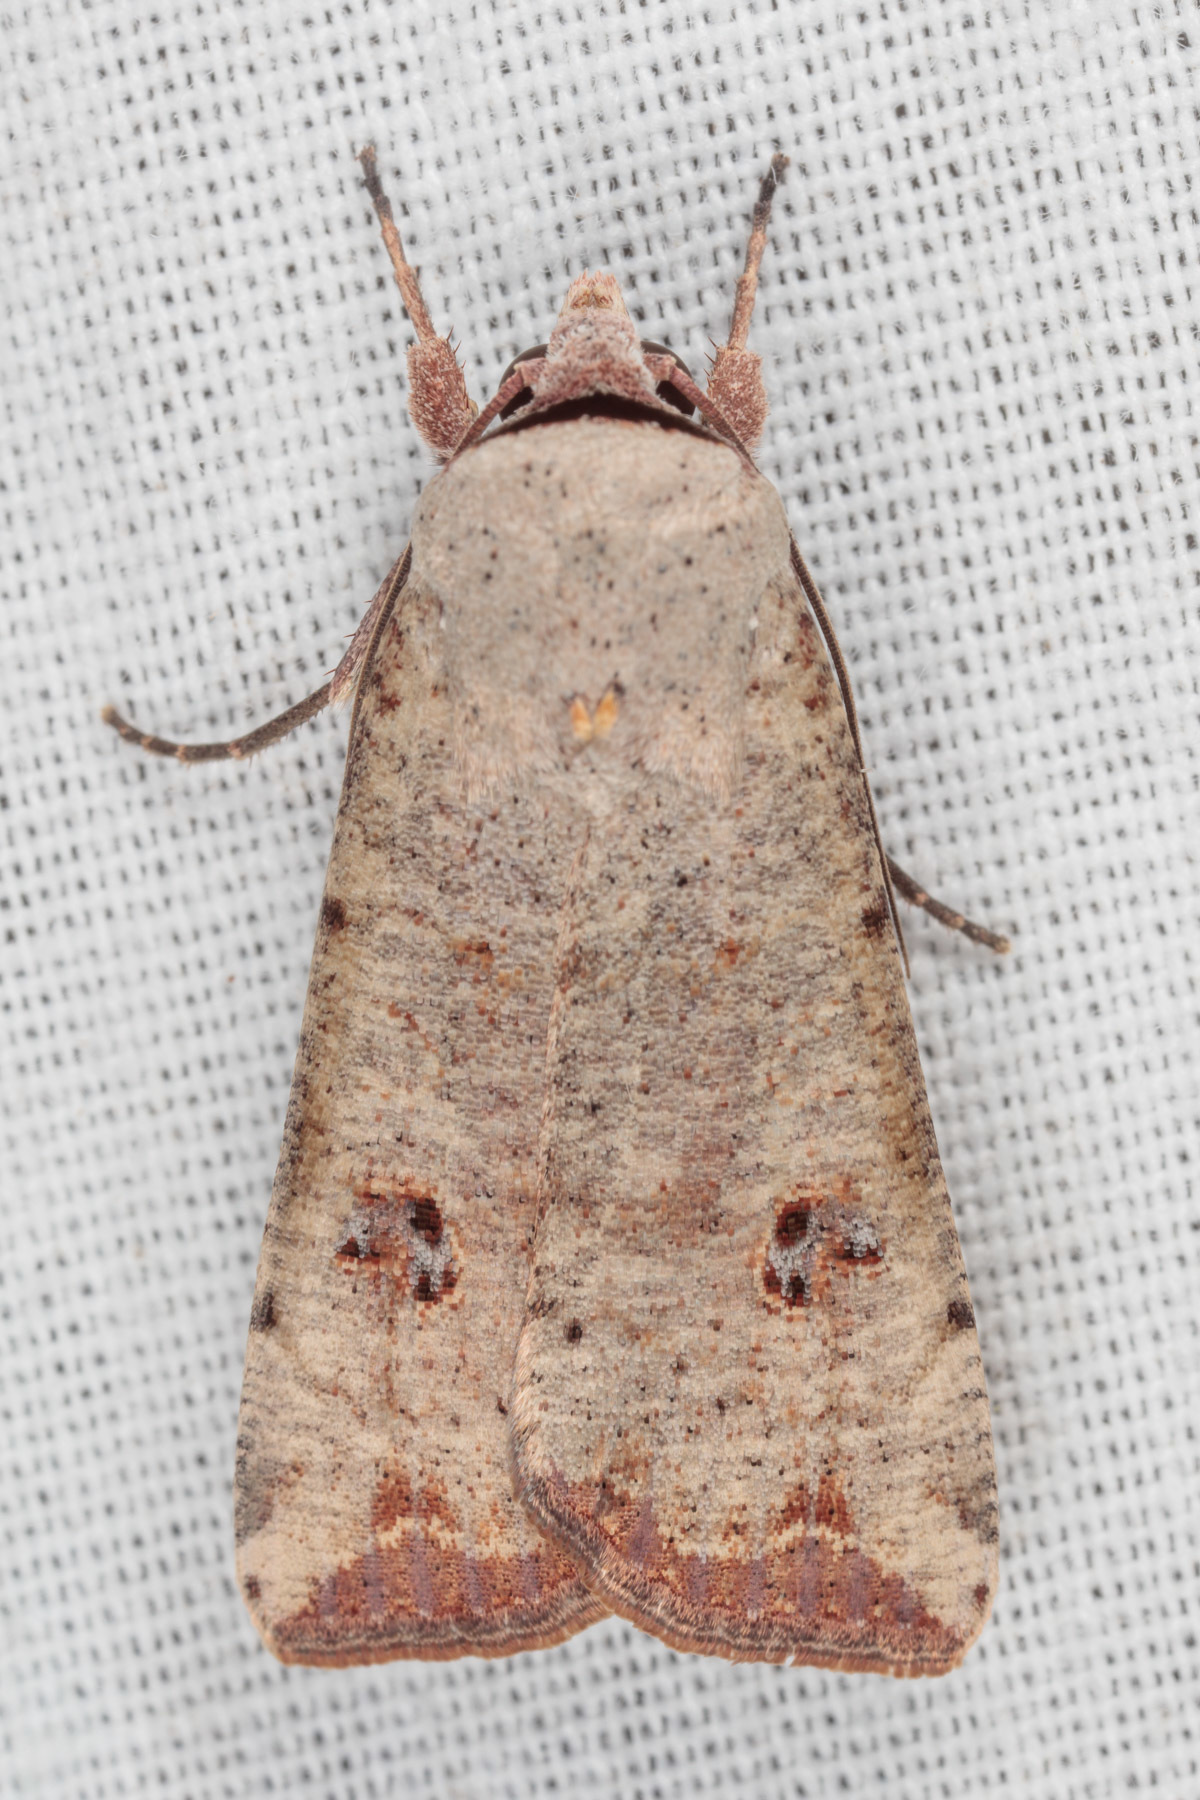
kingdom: Animalia
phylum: Arthropoda
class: Insecta
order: Lepidoptera
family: Noctuidae
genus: Anicla
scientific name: Anicla infecta
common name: Green cutworm
